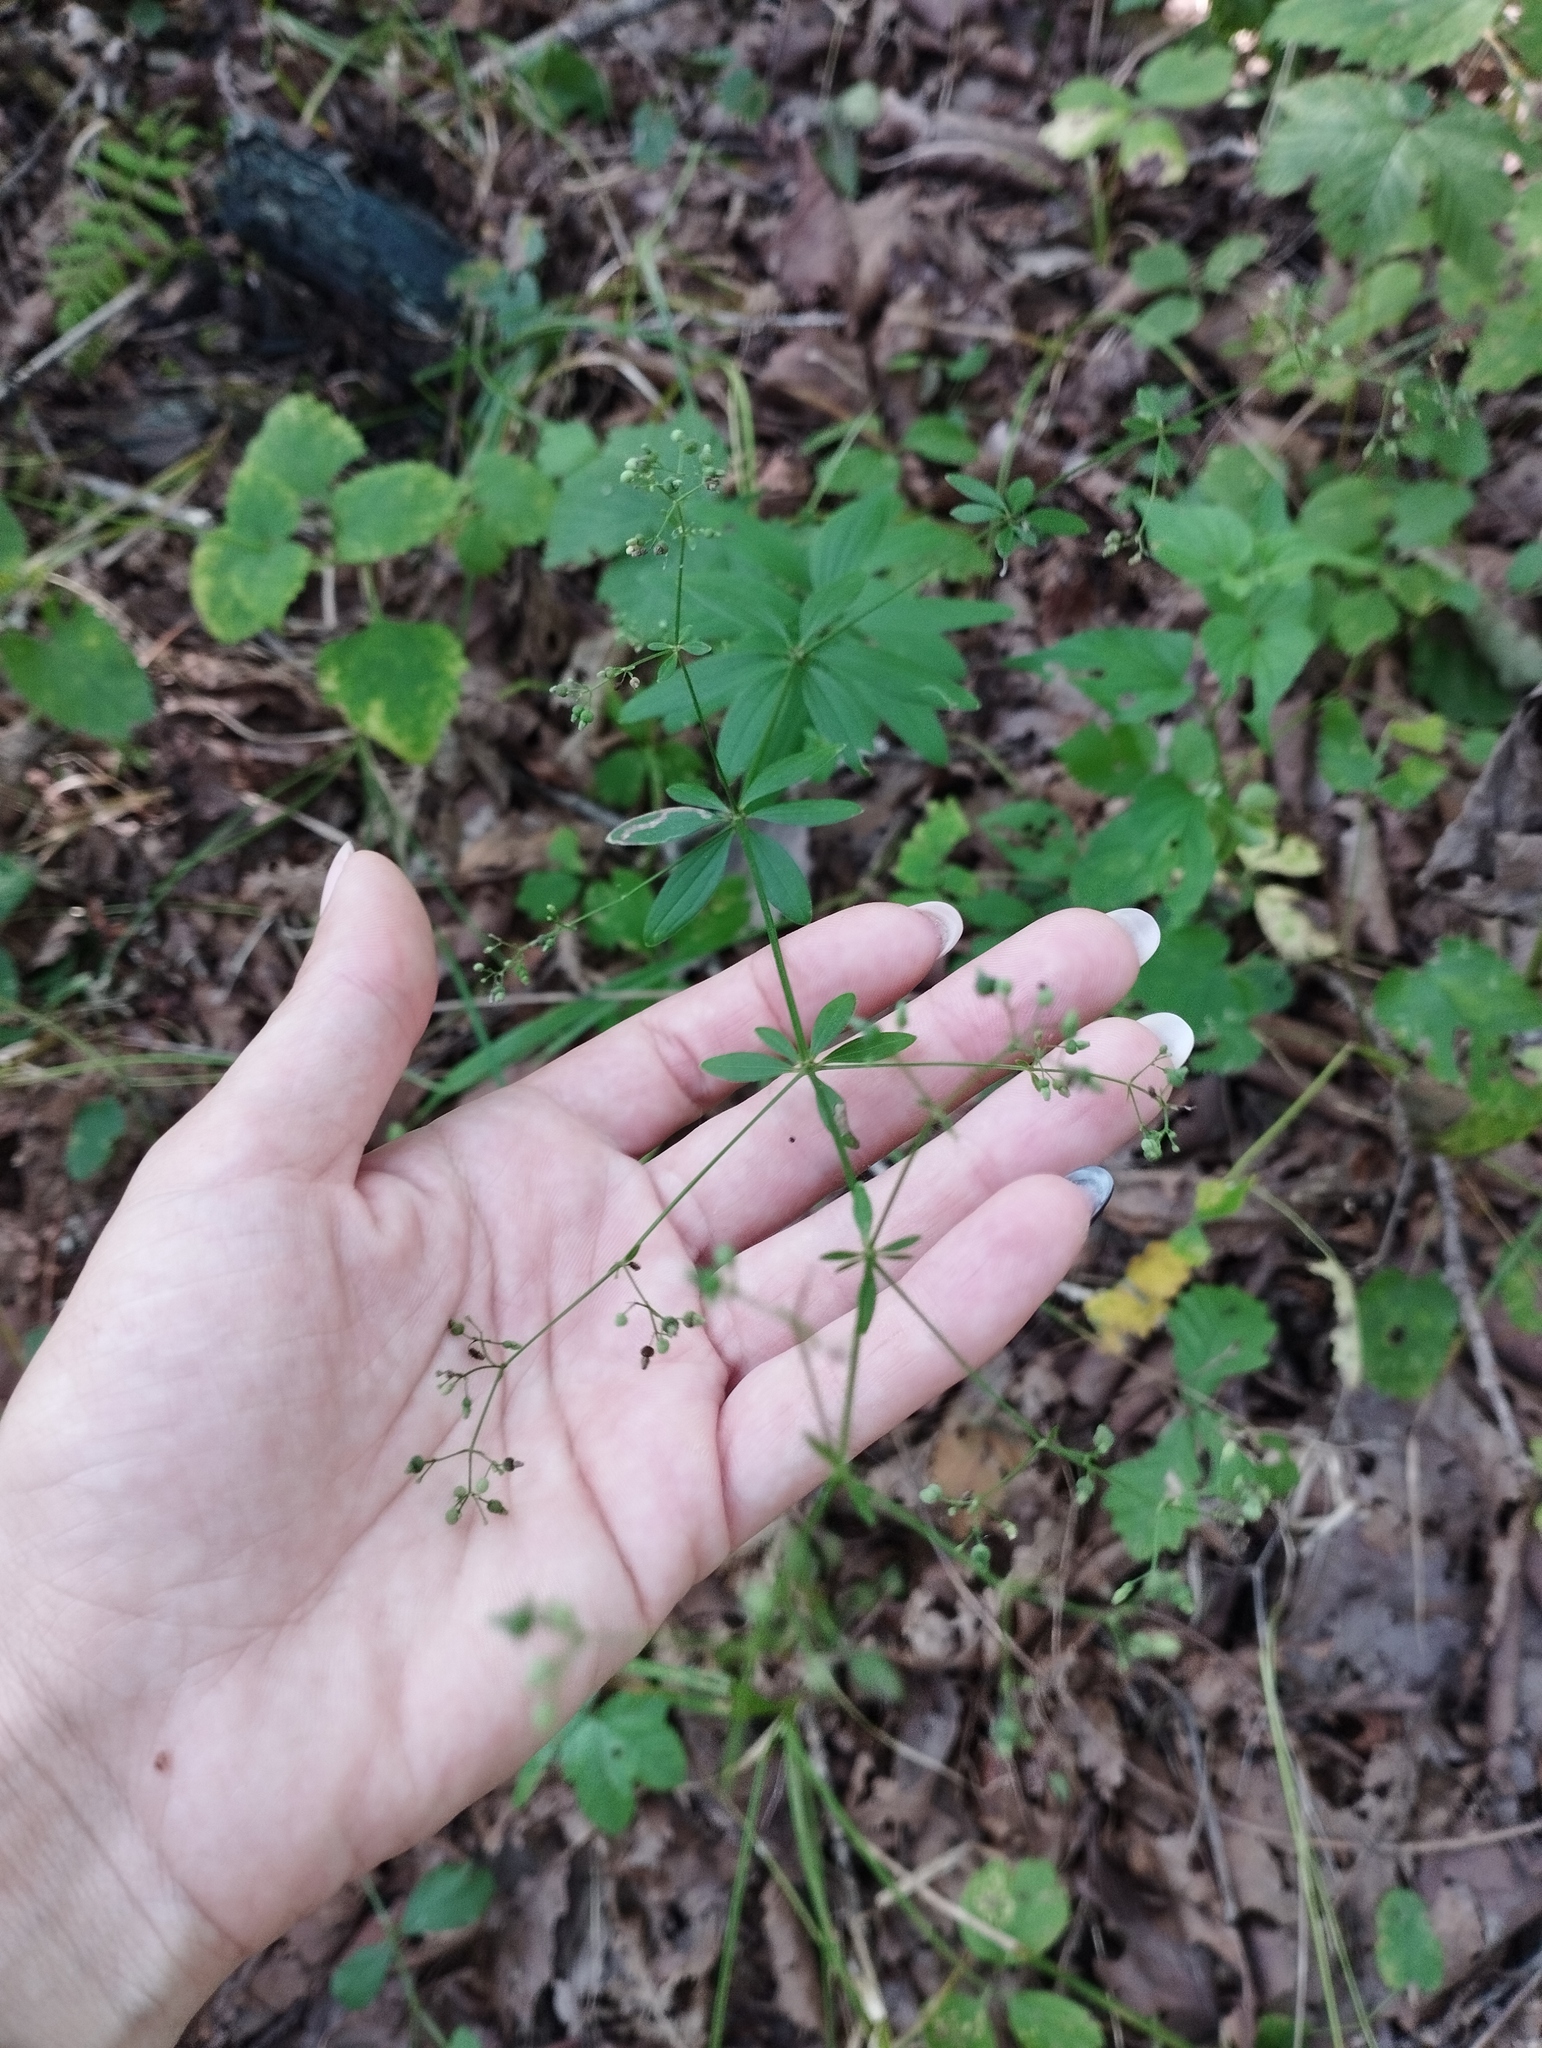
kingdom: Plantae
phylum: Tracheophyta
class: Magnoliopsida
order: Gentianales
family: Rubiaceae
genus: Galium
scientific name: Galium maximowiczii
